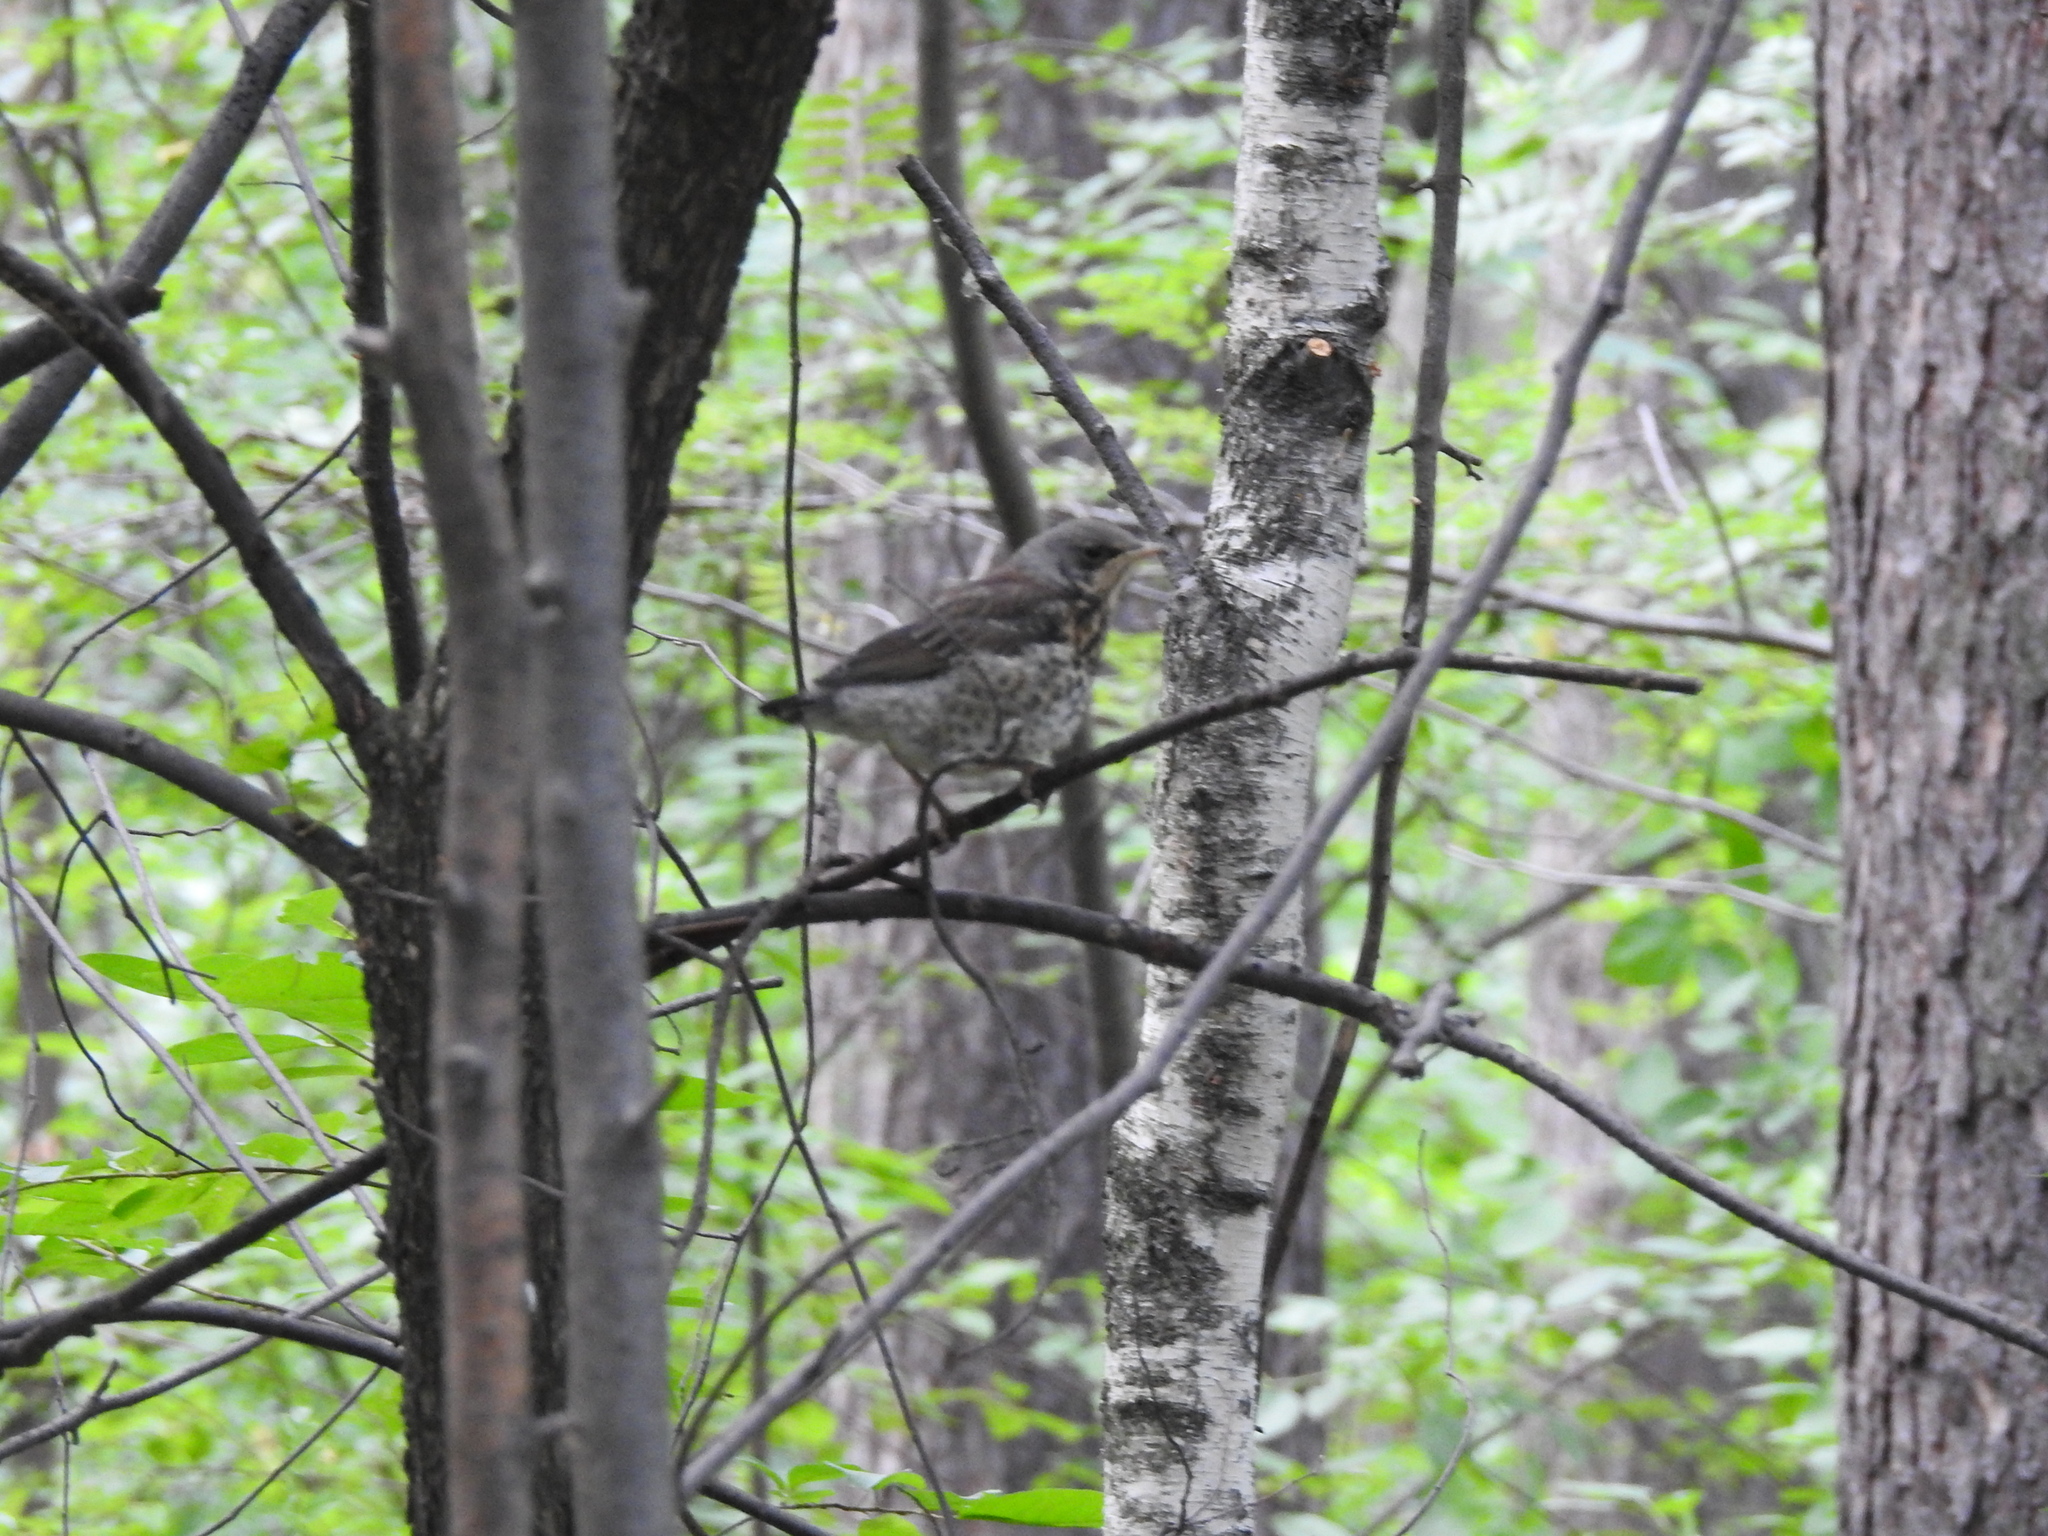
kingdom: Animalia
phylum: Chordata
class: Aves
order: Passeriformes
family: Turdidae
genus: Turdus
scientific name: Turdus pilaris
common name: Fieldfare
